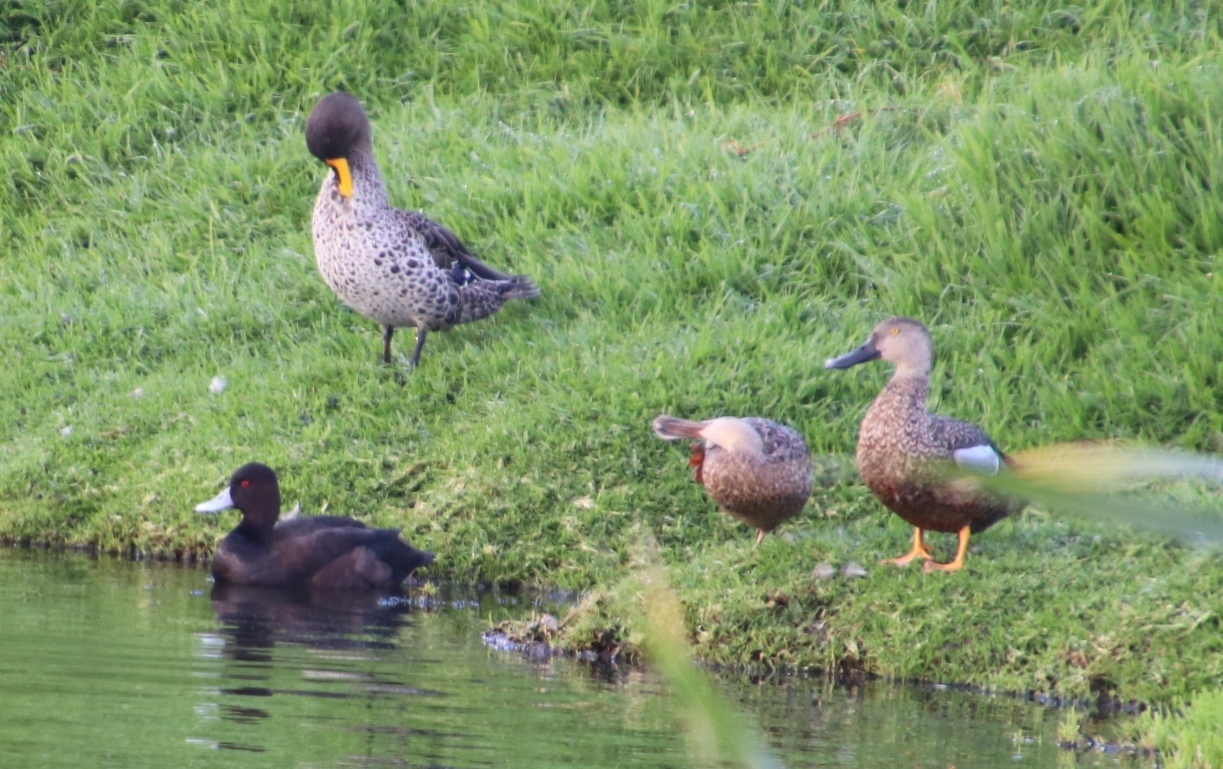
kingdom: Animalia
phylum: Chordata
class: Aves
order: Anseriformes
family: Anatidae
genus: Spatula
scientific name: Spatula smithii
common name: Cape shoveler
